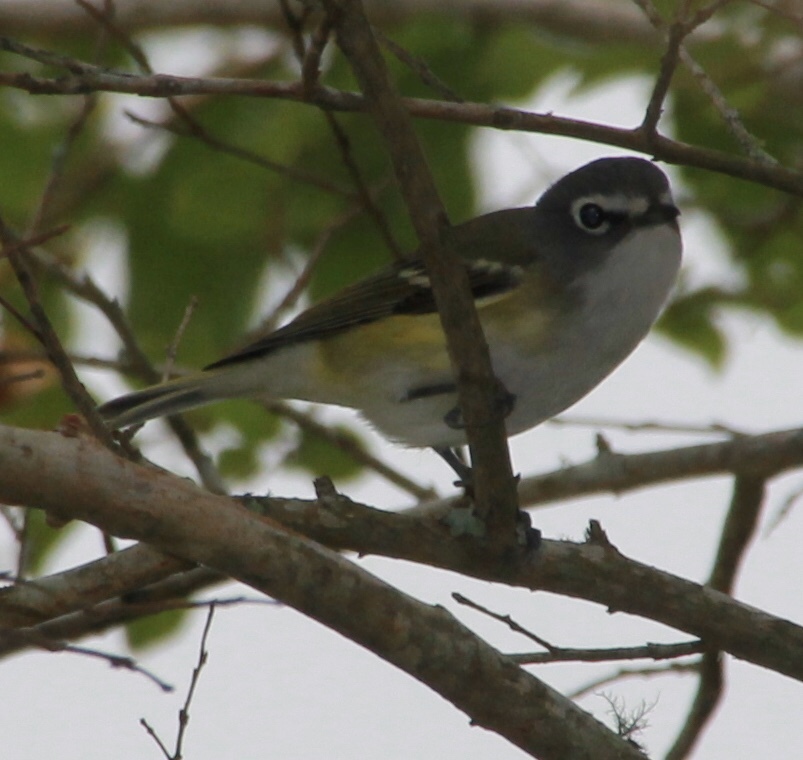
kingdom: Animalia
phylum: Chordata
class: Aves
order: Passeriformes
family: Vireonidae
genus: Vireo
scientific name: Vireo solitarius
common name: Blue-headed vireo
